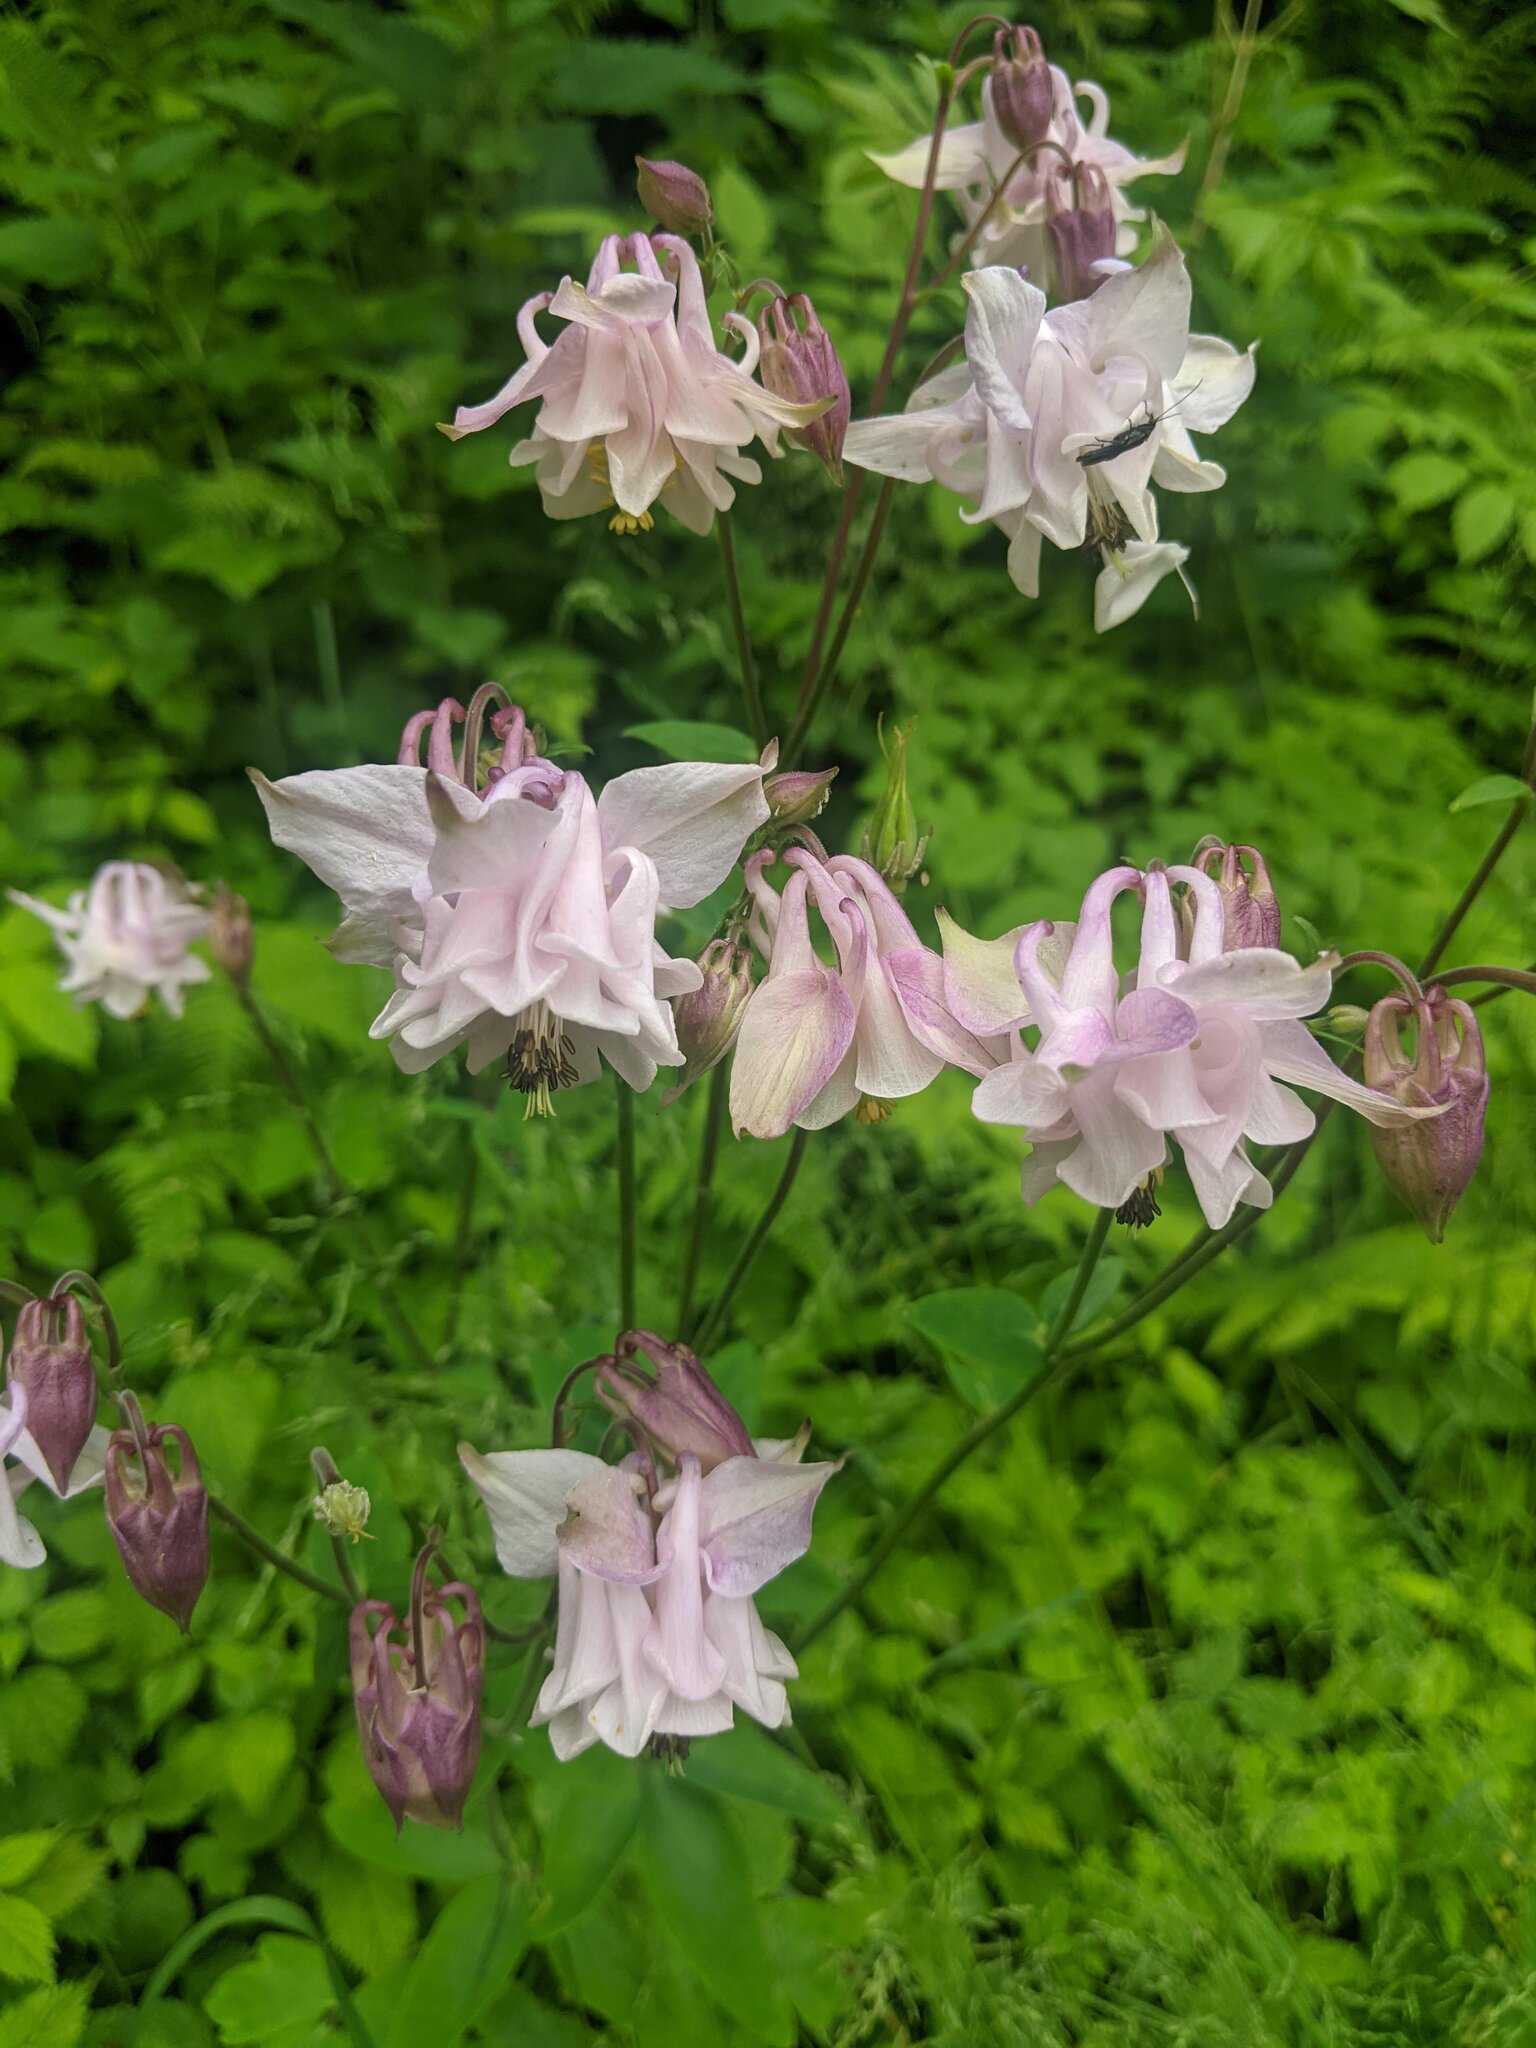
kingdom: Plantae
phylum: Tracheophyta
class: Magnoliopsida
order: Ranunculales
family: Ranunculaceae
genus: Aquilegia
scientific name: Aquilegia vulgaris
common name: Columbine
